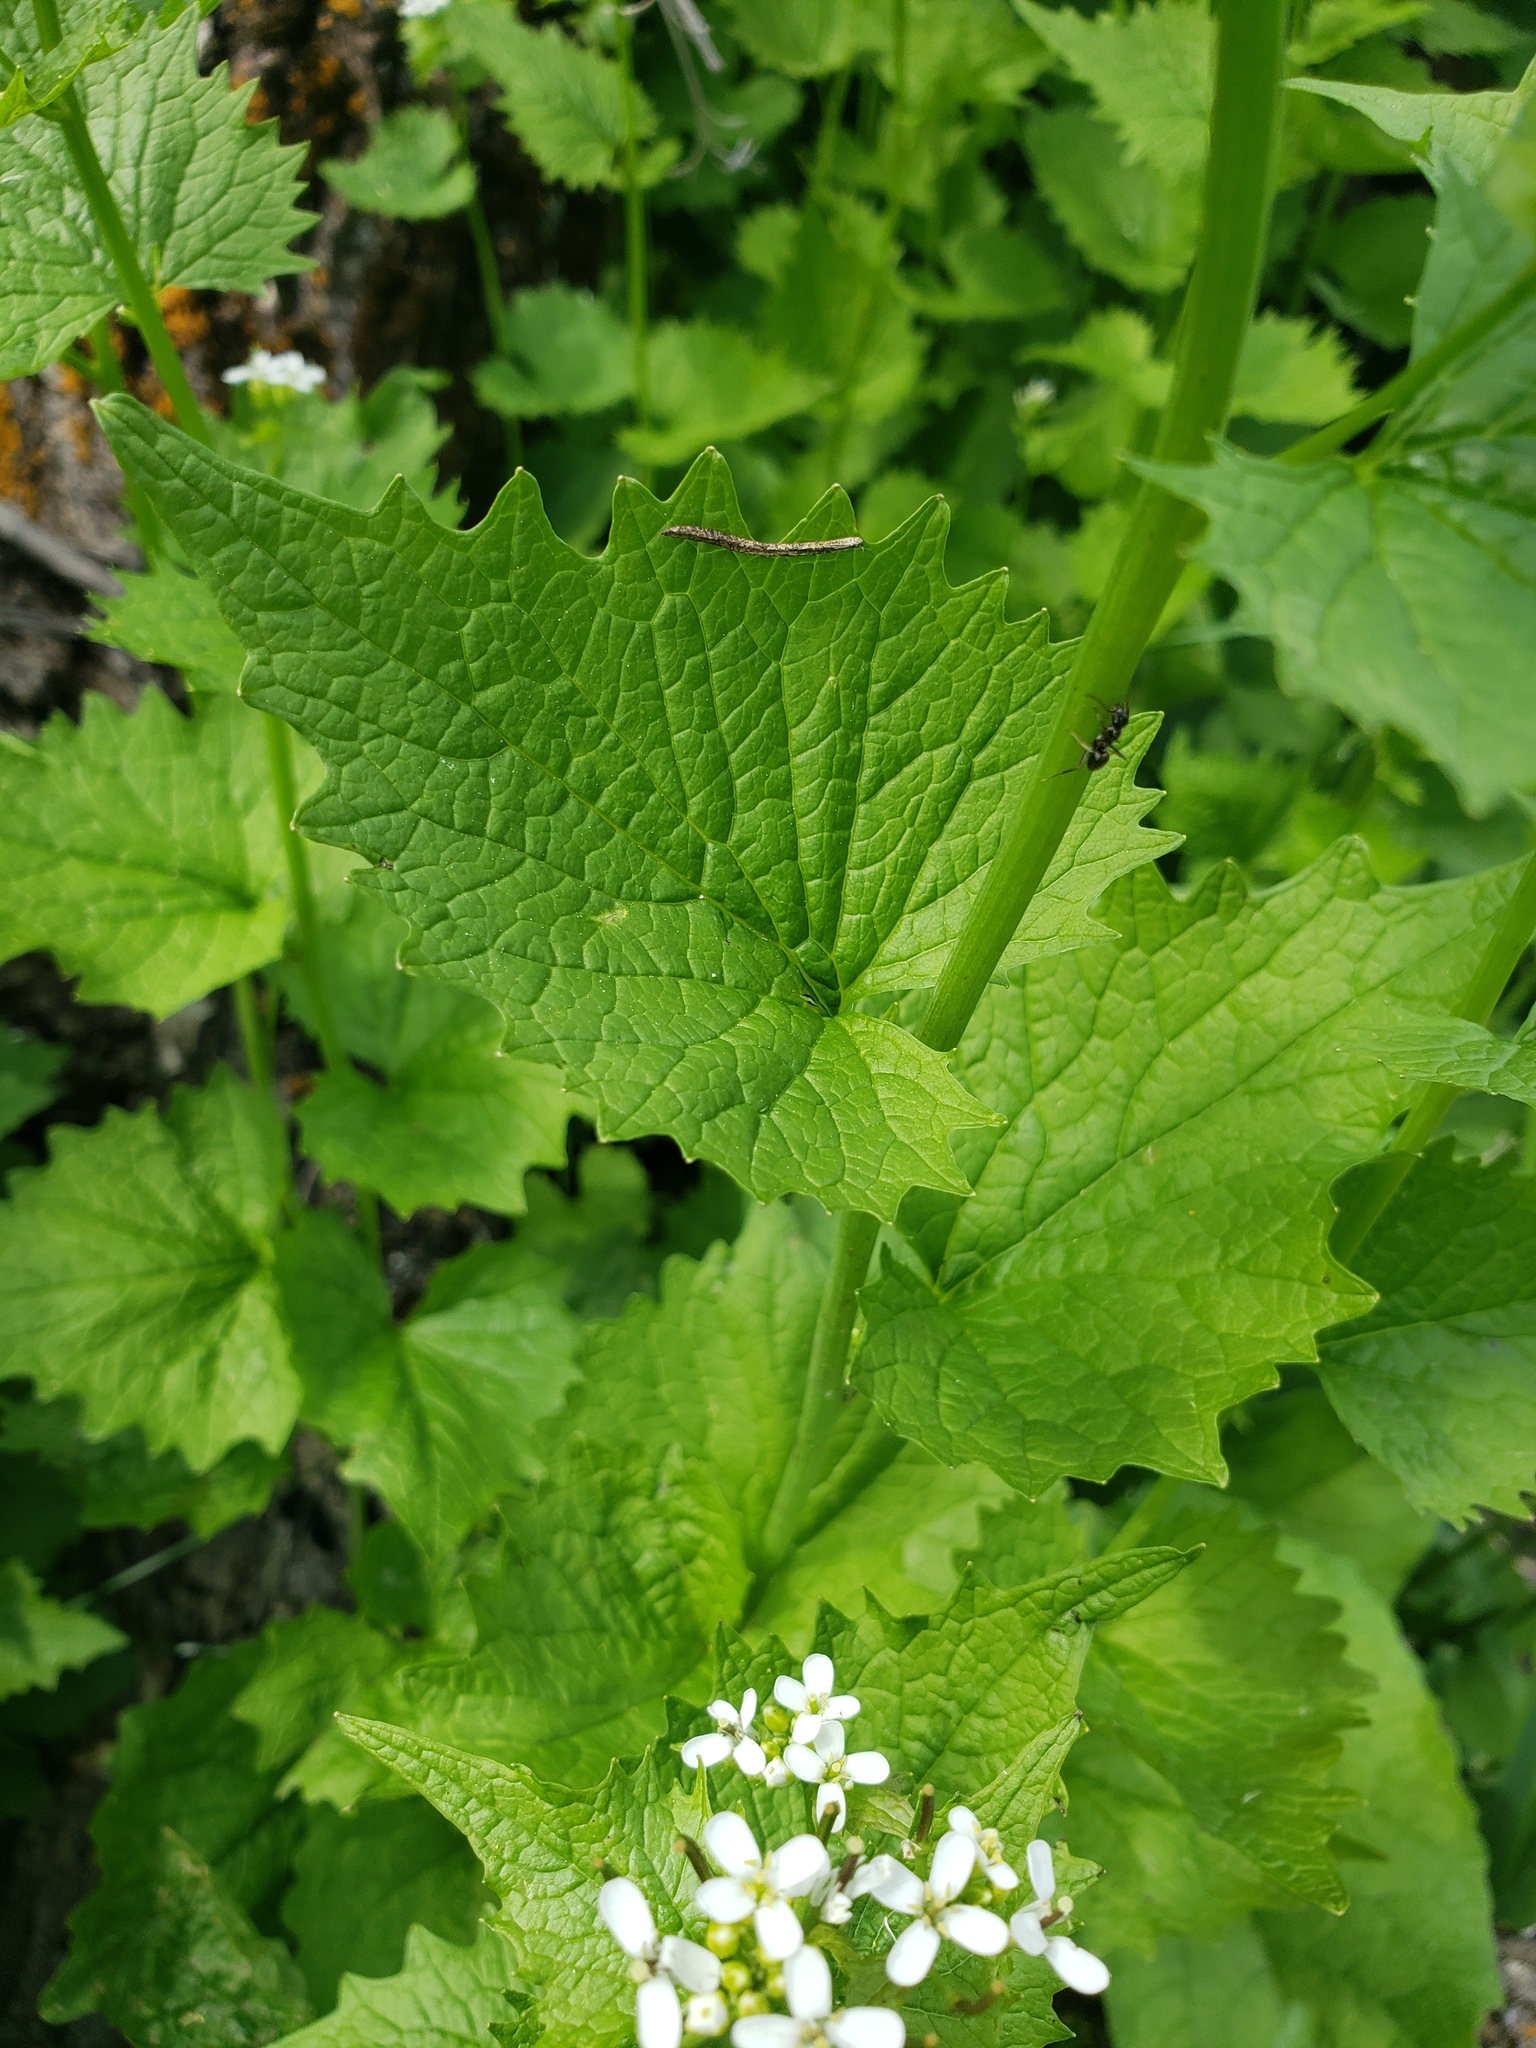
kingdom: Plantae
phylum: Tracheophyta
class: Magnoliopsida
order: Brassicales
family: Brassicaceae
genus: Alliaria
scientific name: Alliaria petiolata
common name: Garlic mustard
